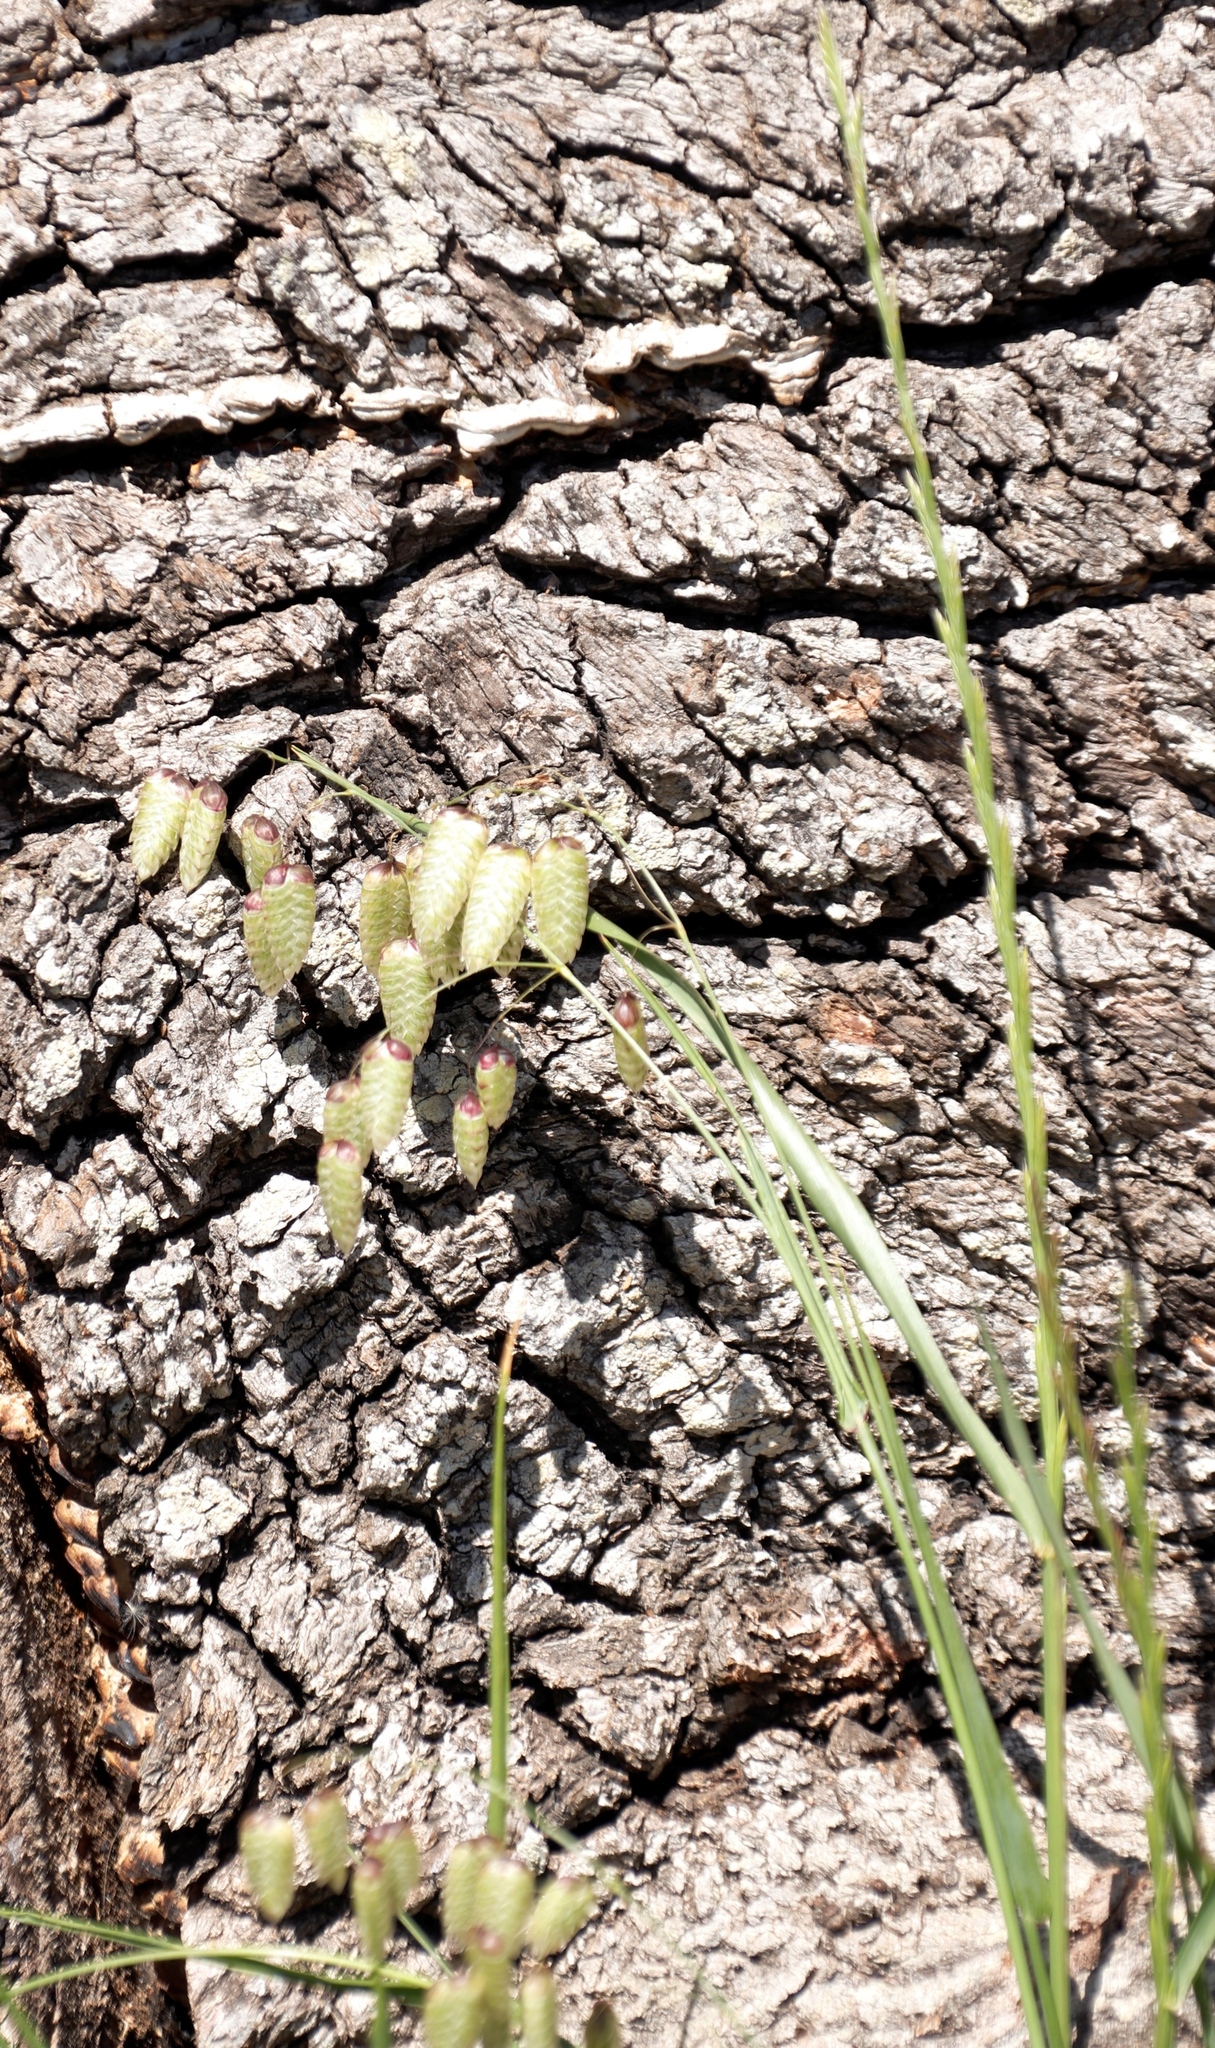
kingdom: Plantae
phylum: Tracheophyta
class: Liliopsida
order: Poales
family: Poaceae
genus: Briza
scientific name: Briza maxima
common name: Big quakinggrass
